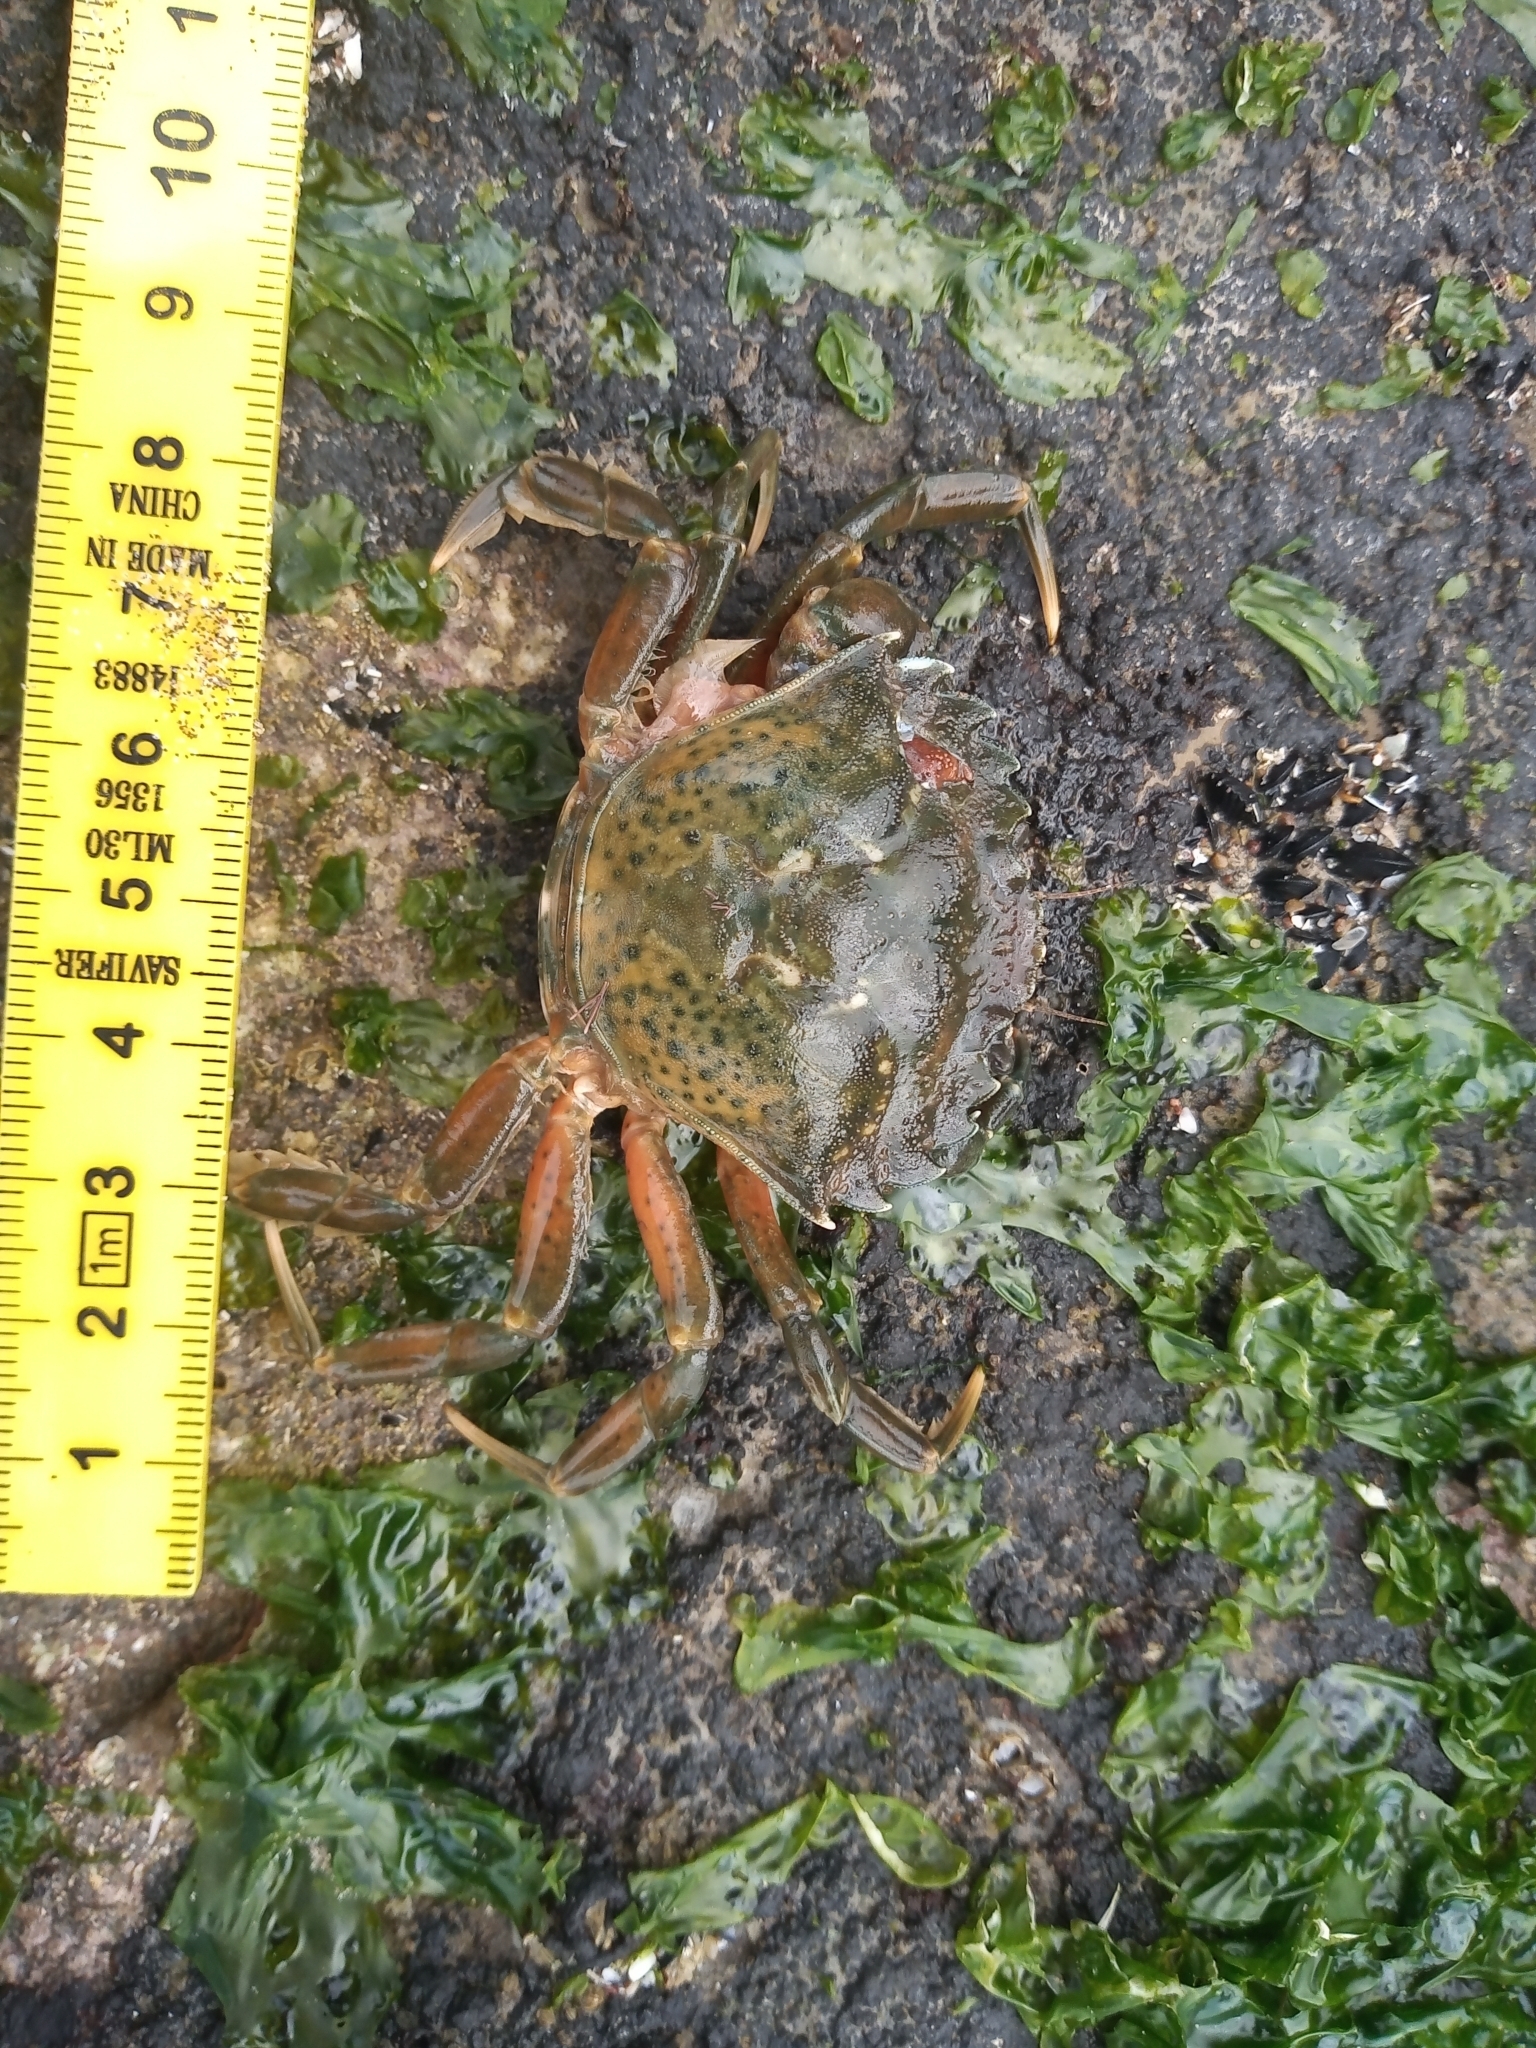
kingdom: Animalia
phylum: Arthropoda
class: Malacostraca
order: Decapoda
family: Carcinidae
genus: Carcinus
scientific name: Carcinus maenas
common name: European green crab
